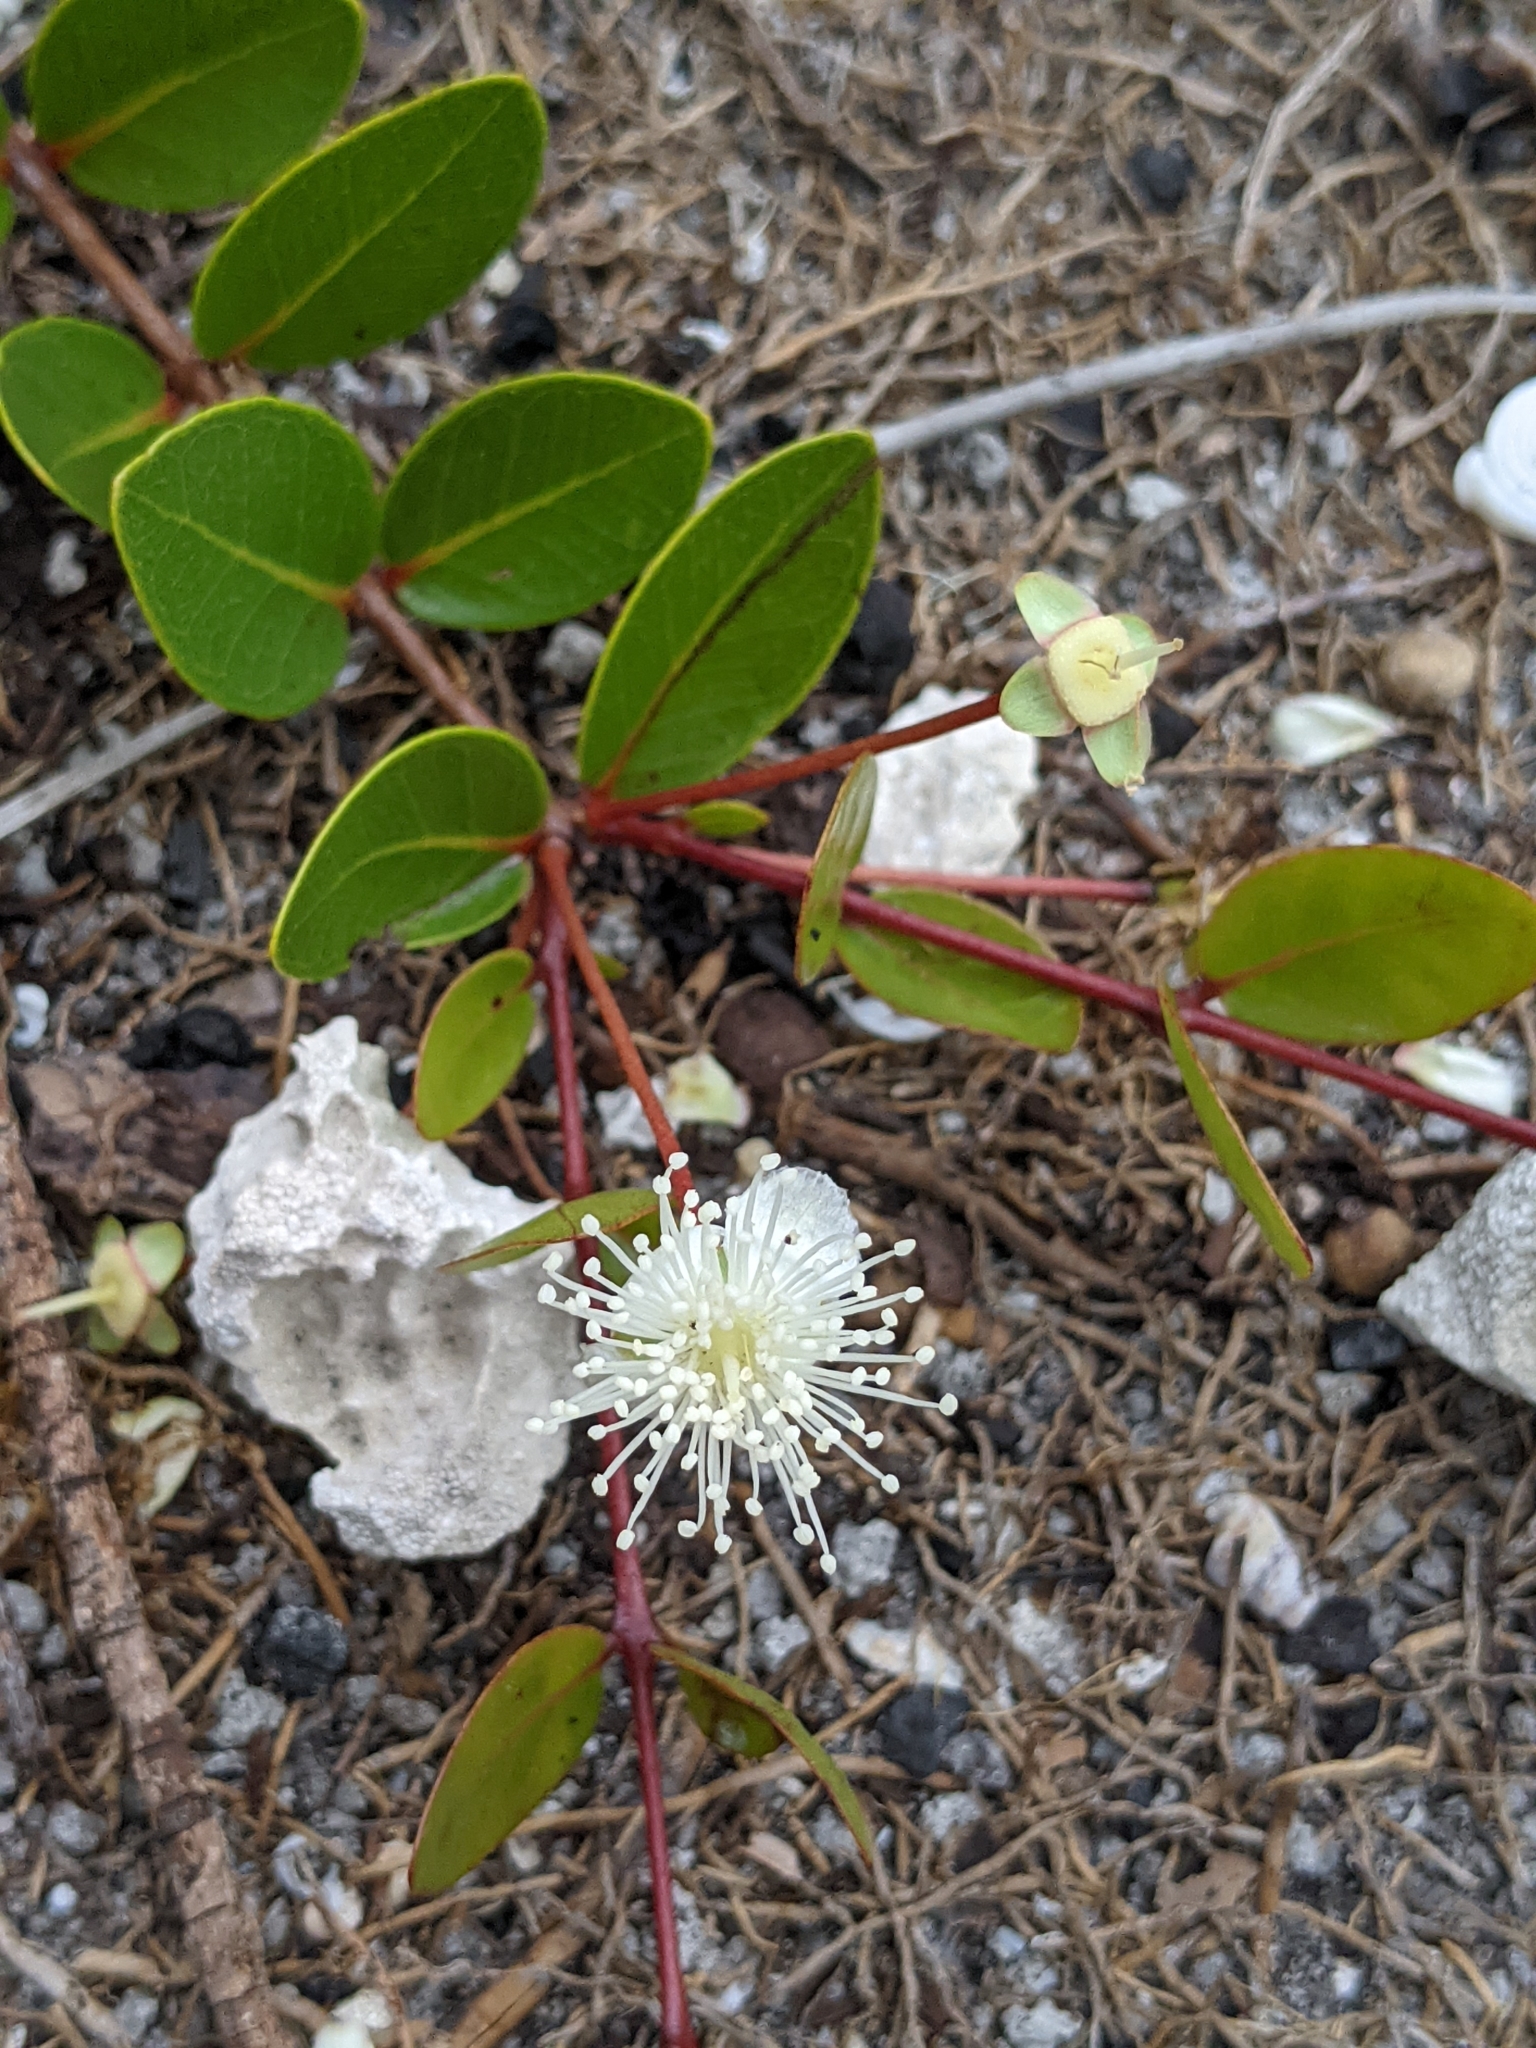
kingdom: Plantae
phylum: Tracheophyta
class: Magnoliopsida
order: Myrtales
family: Myrtaceae
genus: Mosiera
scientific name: Mosiera longipes
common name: Bahama stopper
